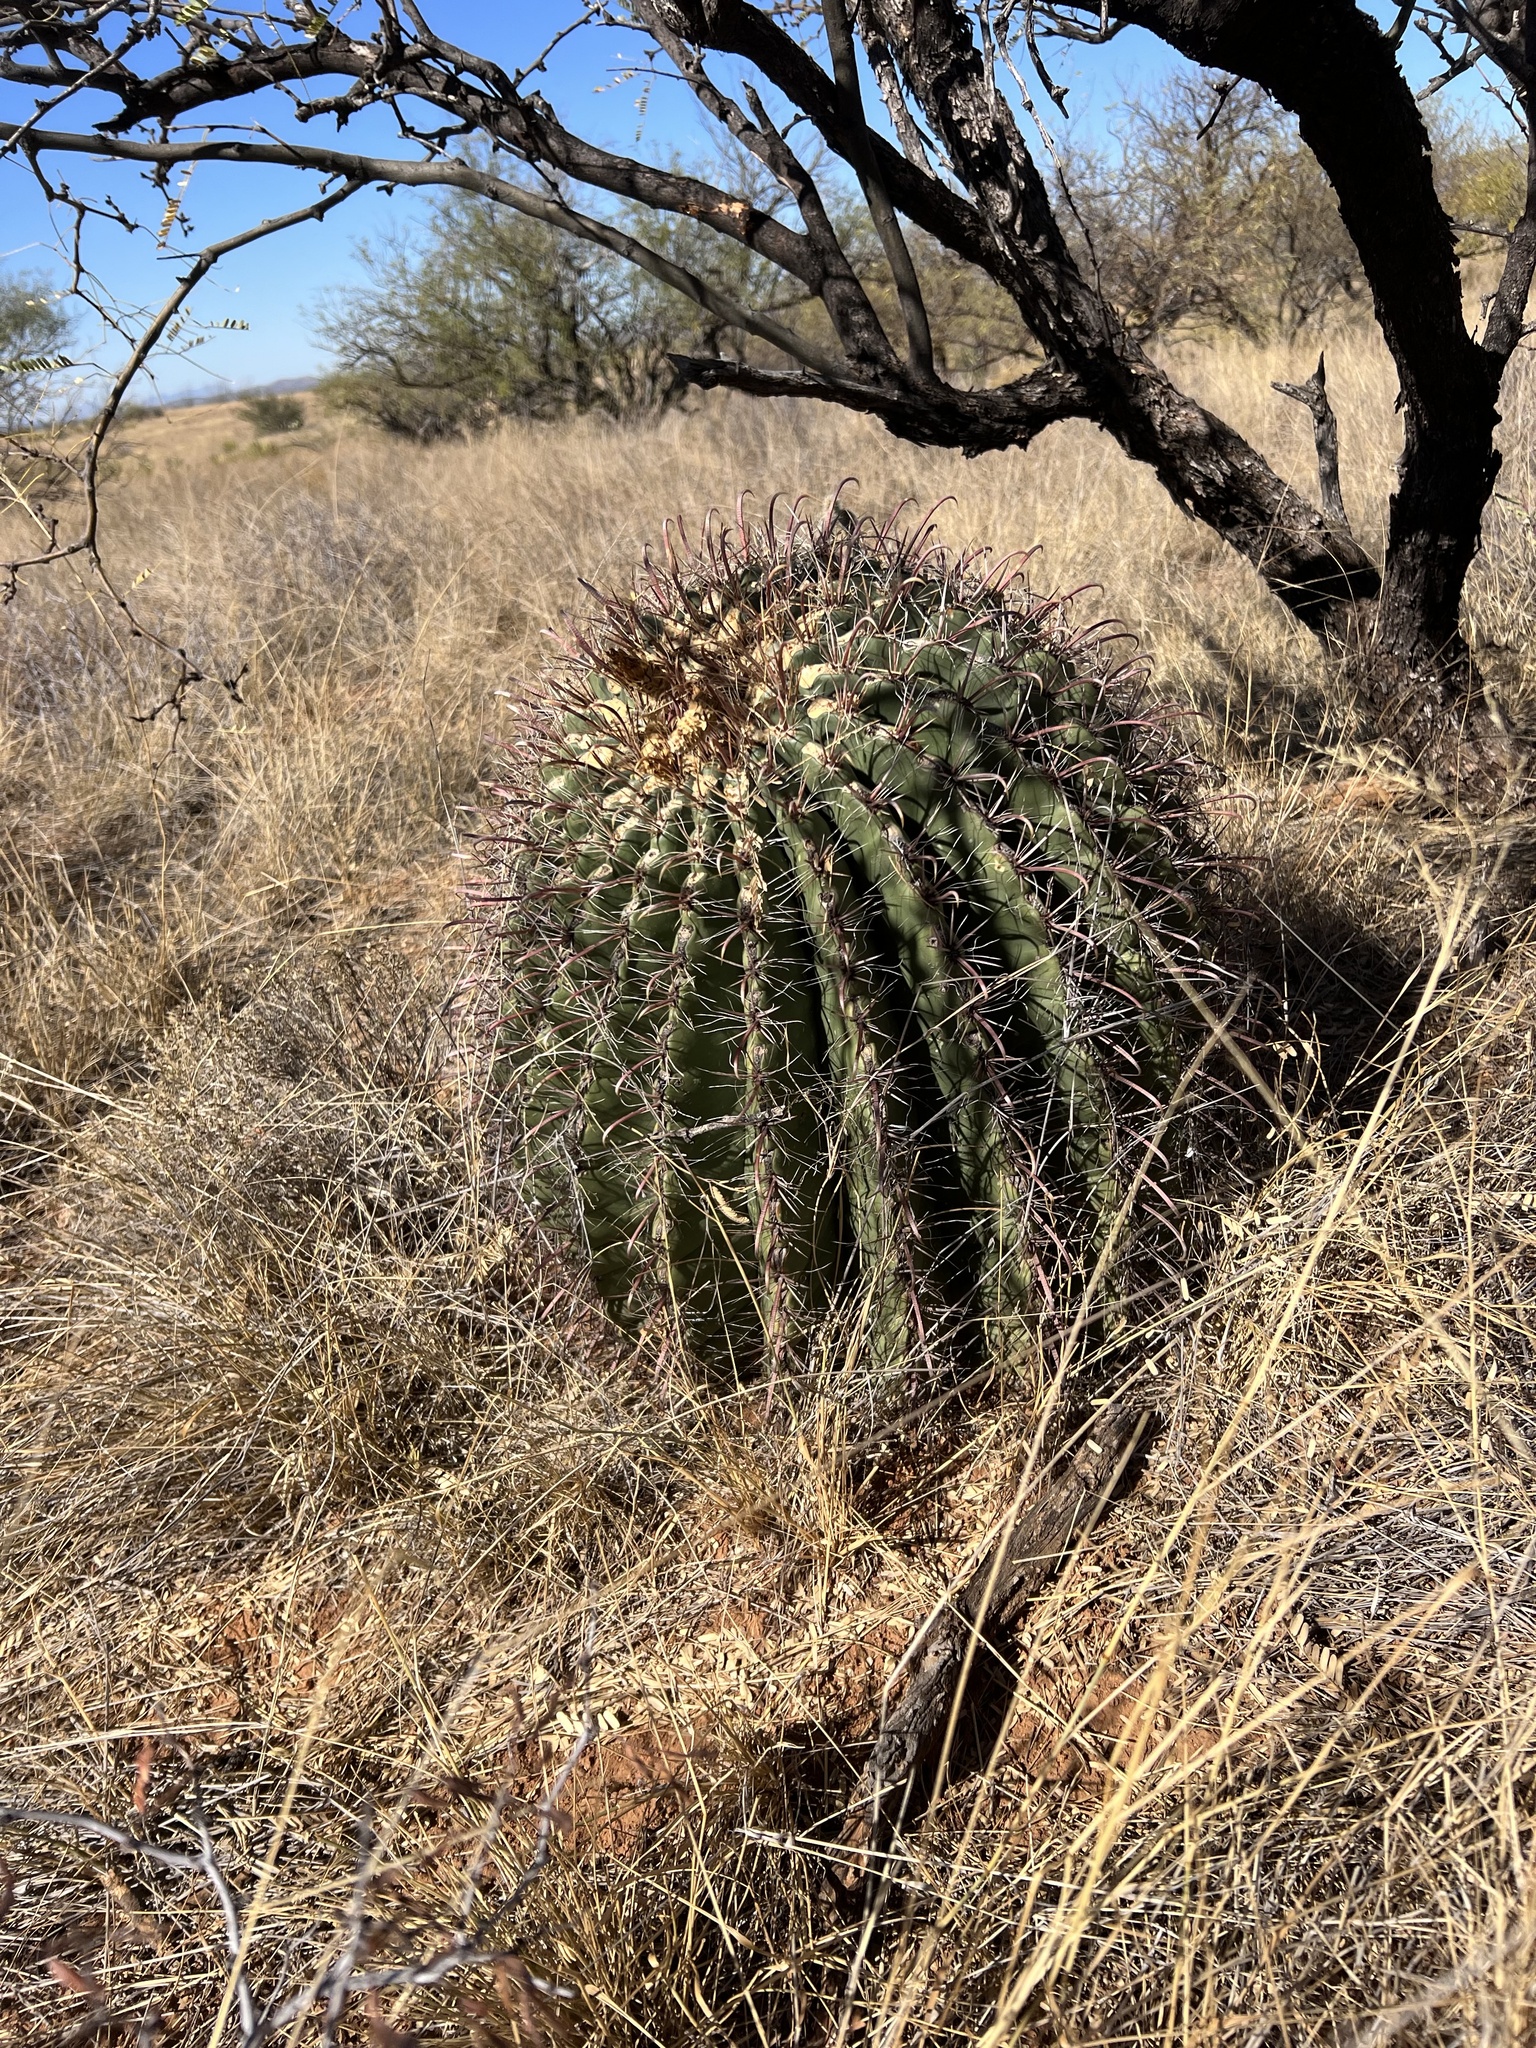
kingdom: Plantae
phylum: Tracheophyta
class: Magnoliopsida
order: Caryophyllales
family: Cactaceae
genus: Ferocactus
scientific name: Ferocactus wislizeni
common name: Candy barrel cactus
